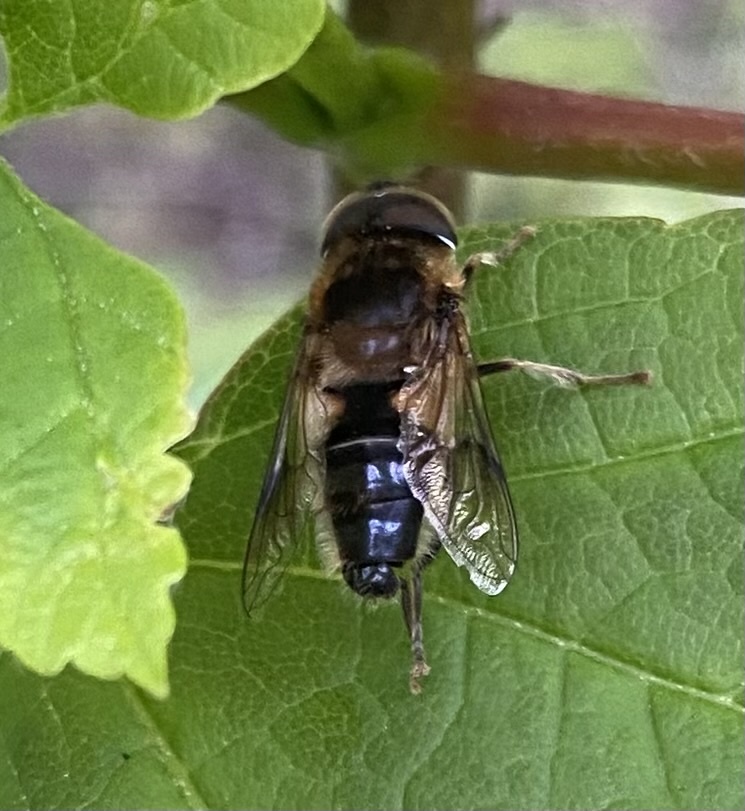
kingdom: Animalia
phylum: Arthropoda
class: Insecta
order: Diptera
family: Syrphidae
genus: Eristalis
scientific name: Eristalis pertinax
